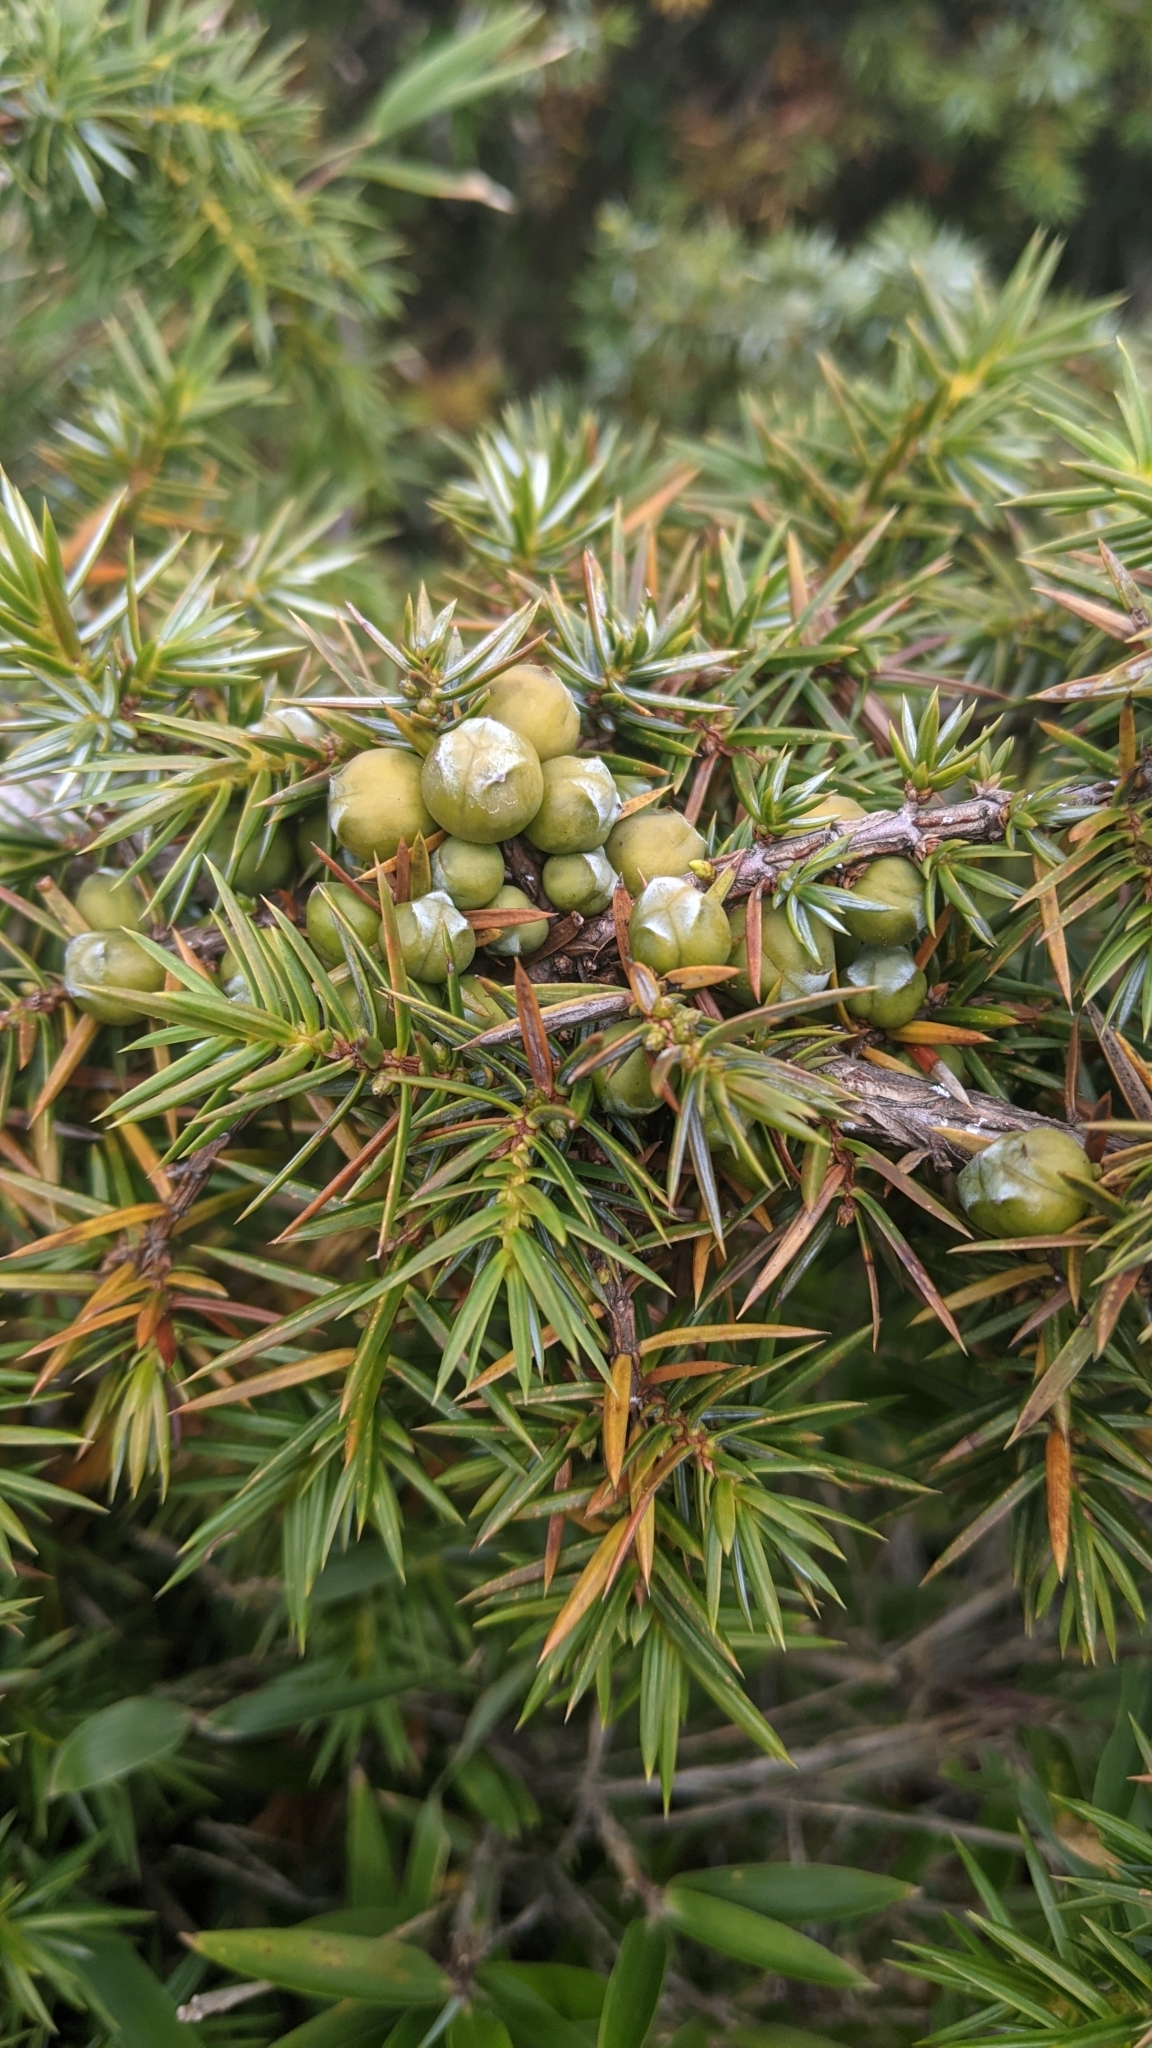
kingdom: Plantae
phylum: Tracheophyta
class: Pinopsida
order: Pinales
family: Cupressaceae
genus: Juniperus
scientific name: Juniperus formosana
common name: Formosan juniper
